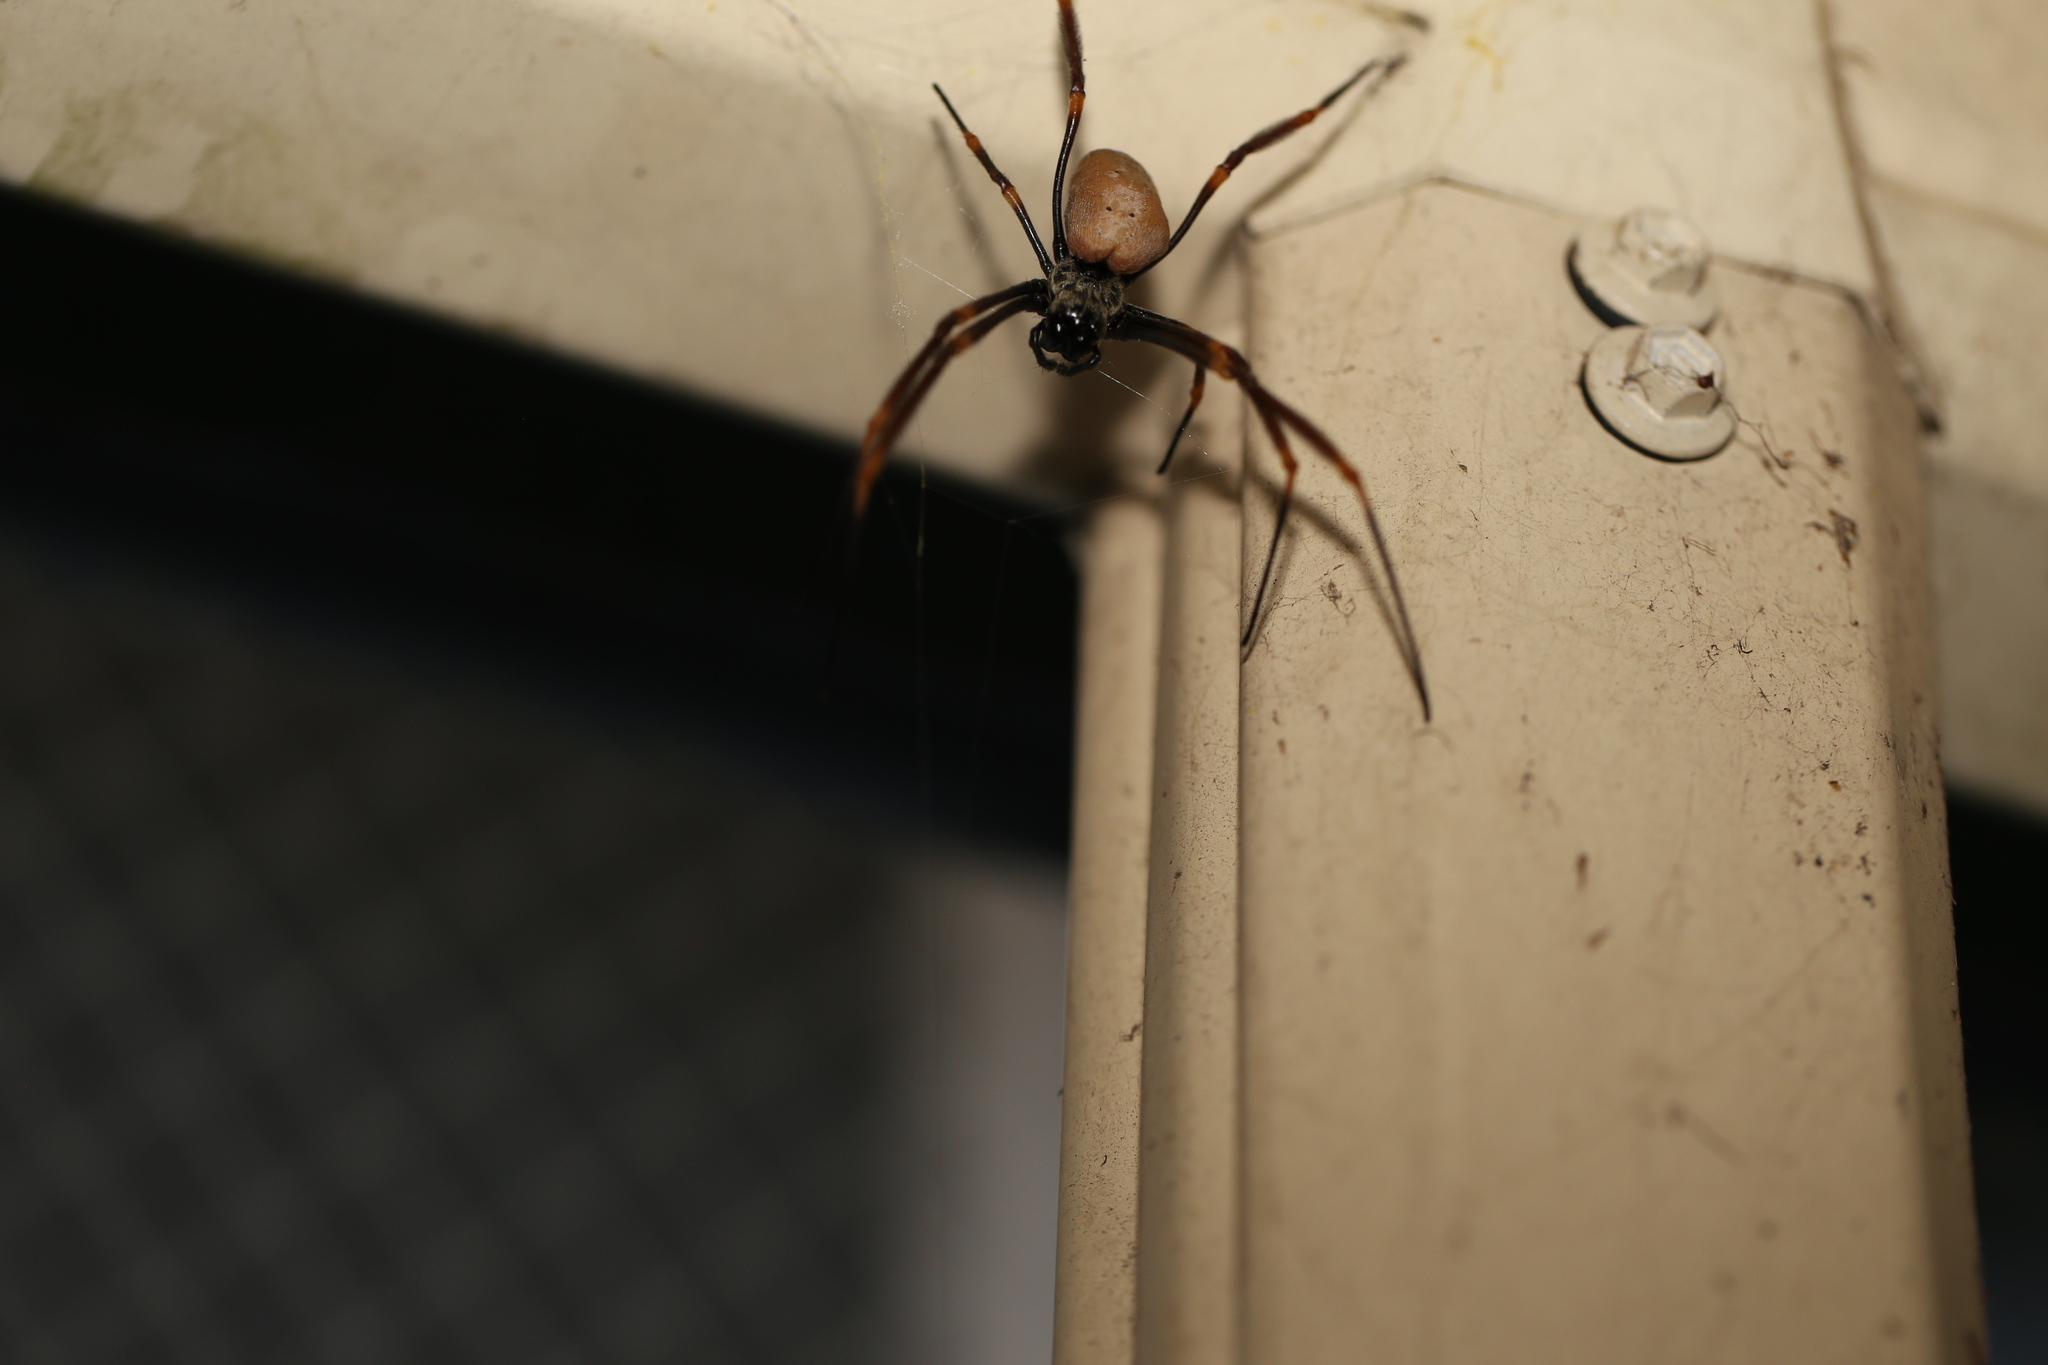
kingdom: Animalia
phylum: Arthropoda
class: Arachnida
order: Araneae
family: Araneidae
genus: Trichonephila
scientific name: Trichonephila plumipes
